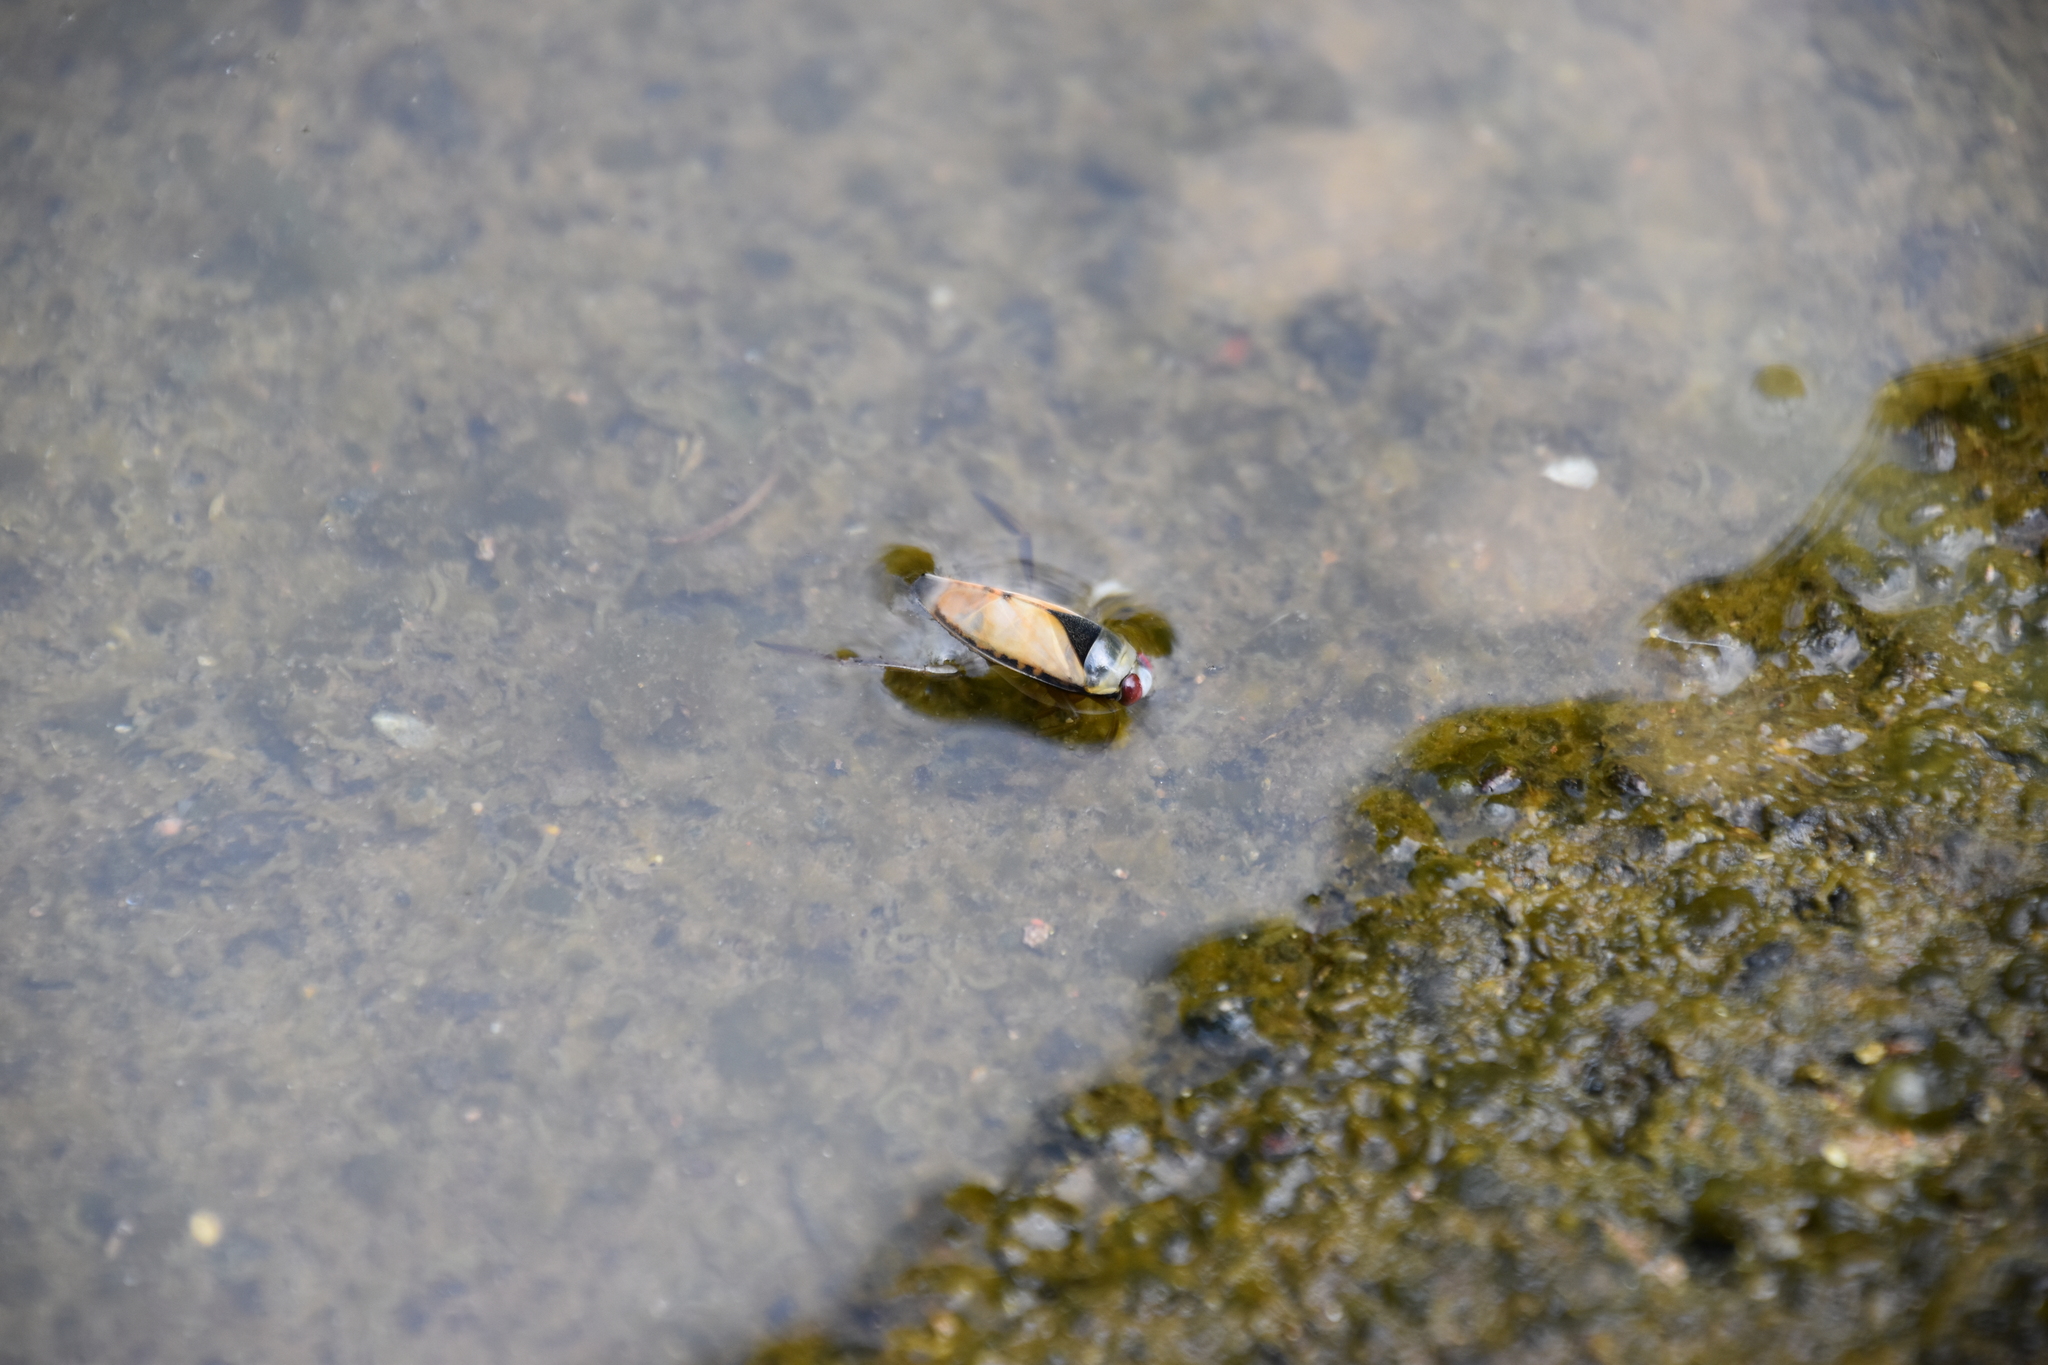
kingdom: Animalia
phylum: Arthropoda
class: Insecta
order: Hemiptera
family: Notonectidae
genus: Notonecta
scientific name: Notonecta glauca
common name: Common water-boatman
